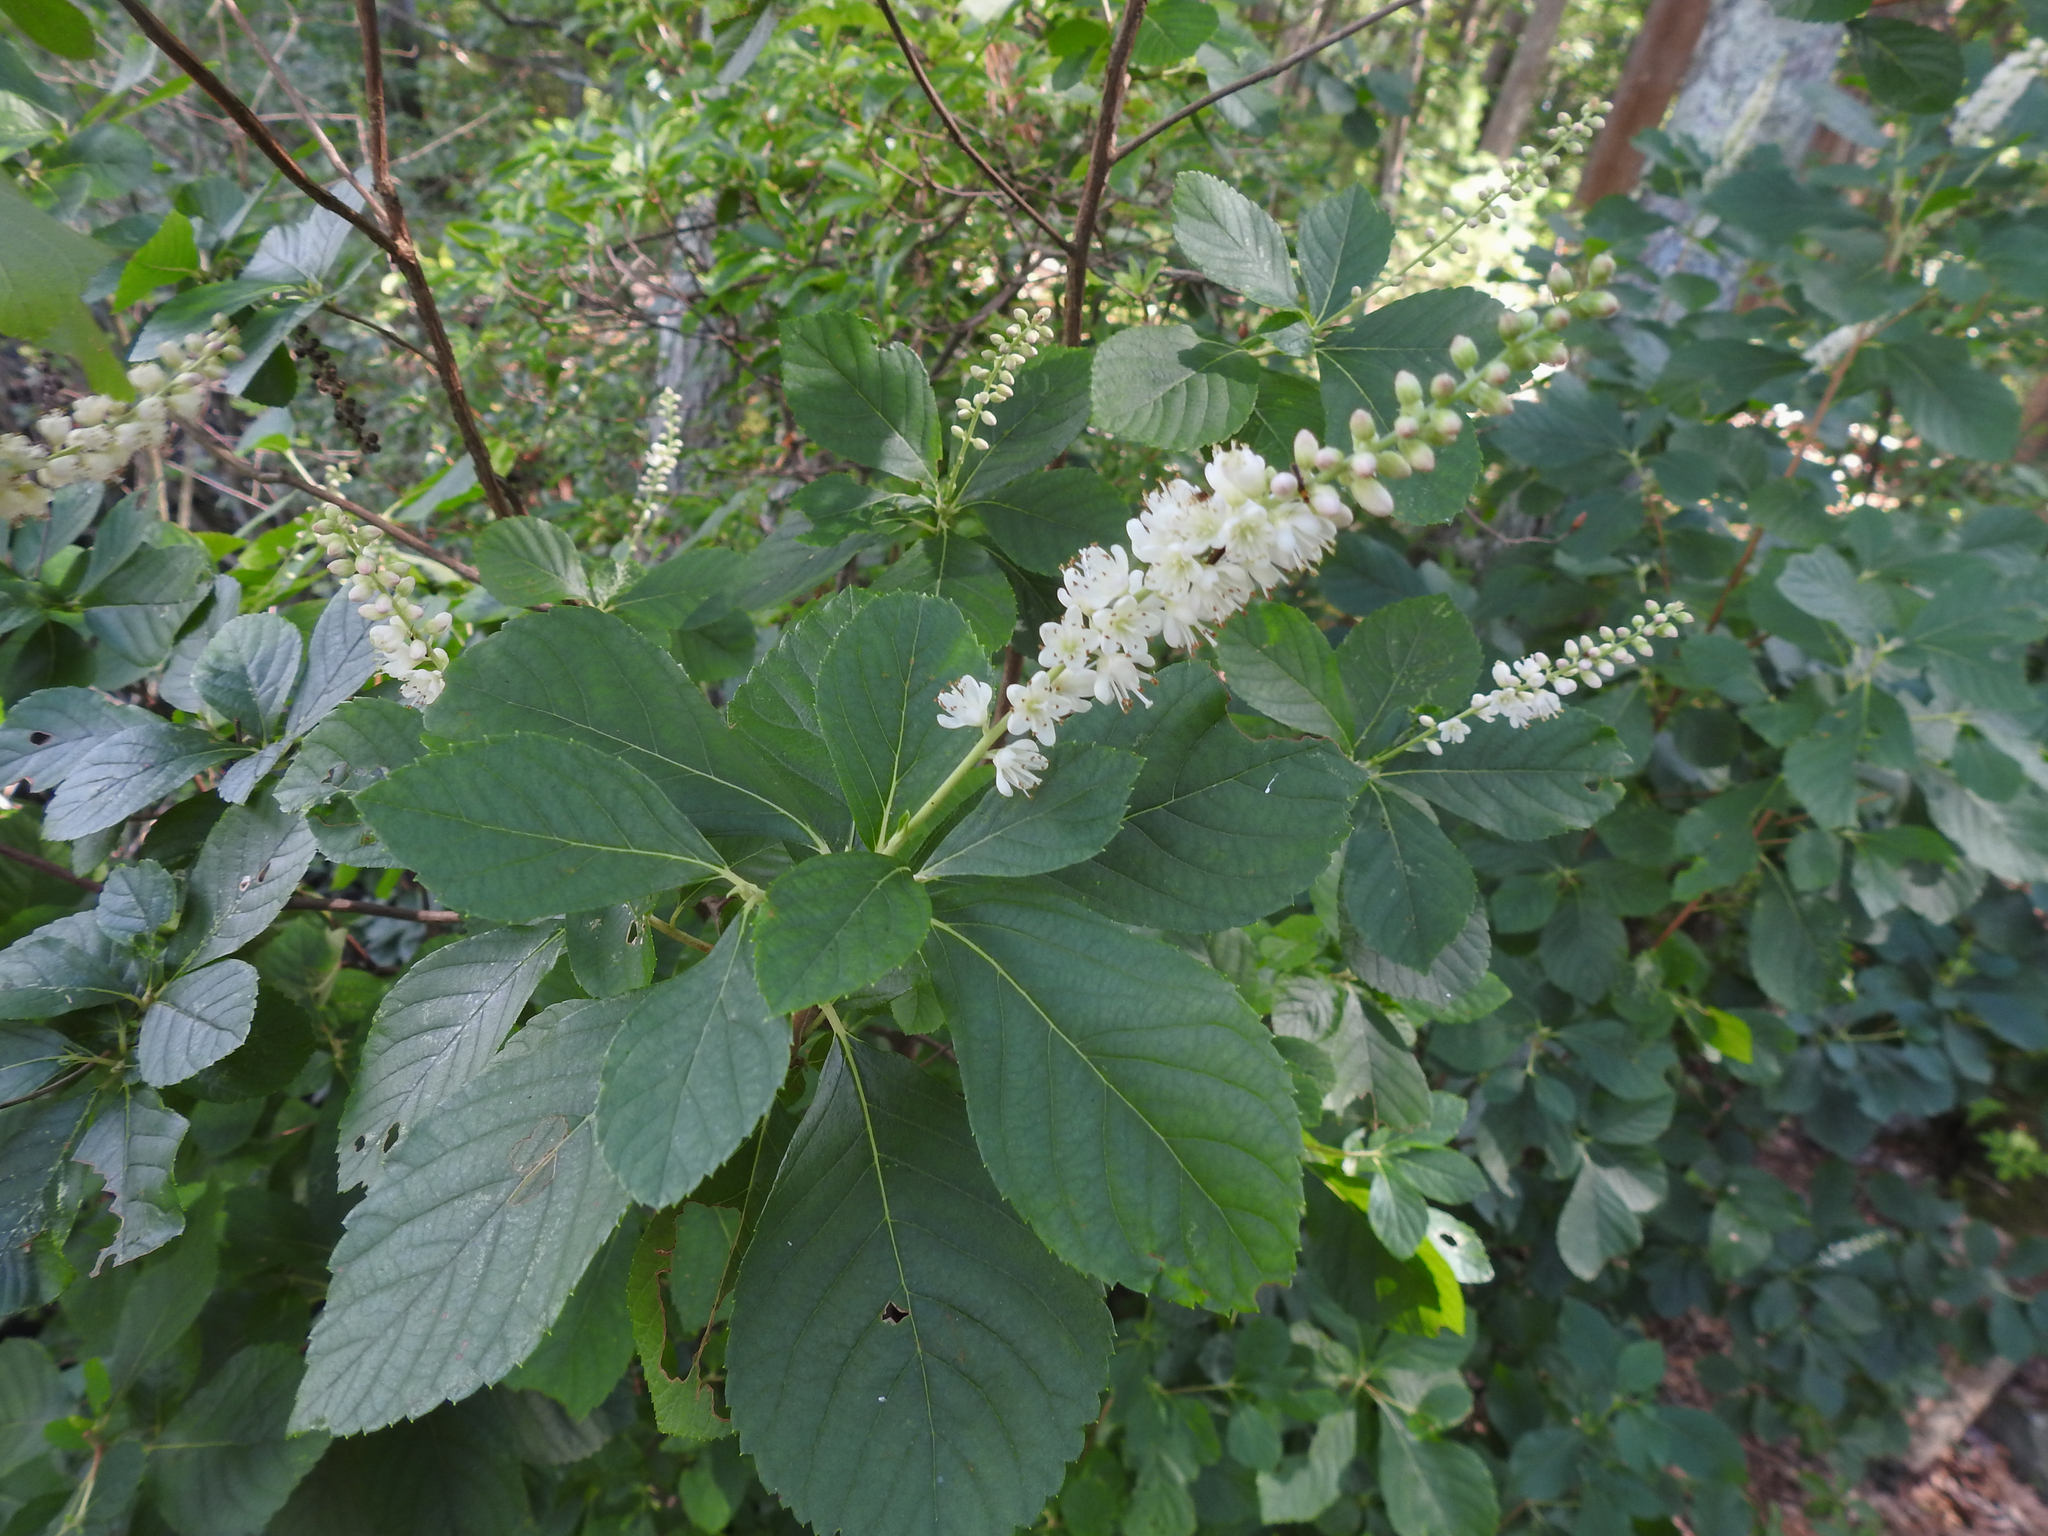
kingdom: Plantae
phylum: Tracheophyta
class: Magnoliopsida
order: Ericales
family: Clethraceae
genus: Clethra
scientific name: Clethra alnifolia
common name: Sweet pepperbush
